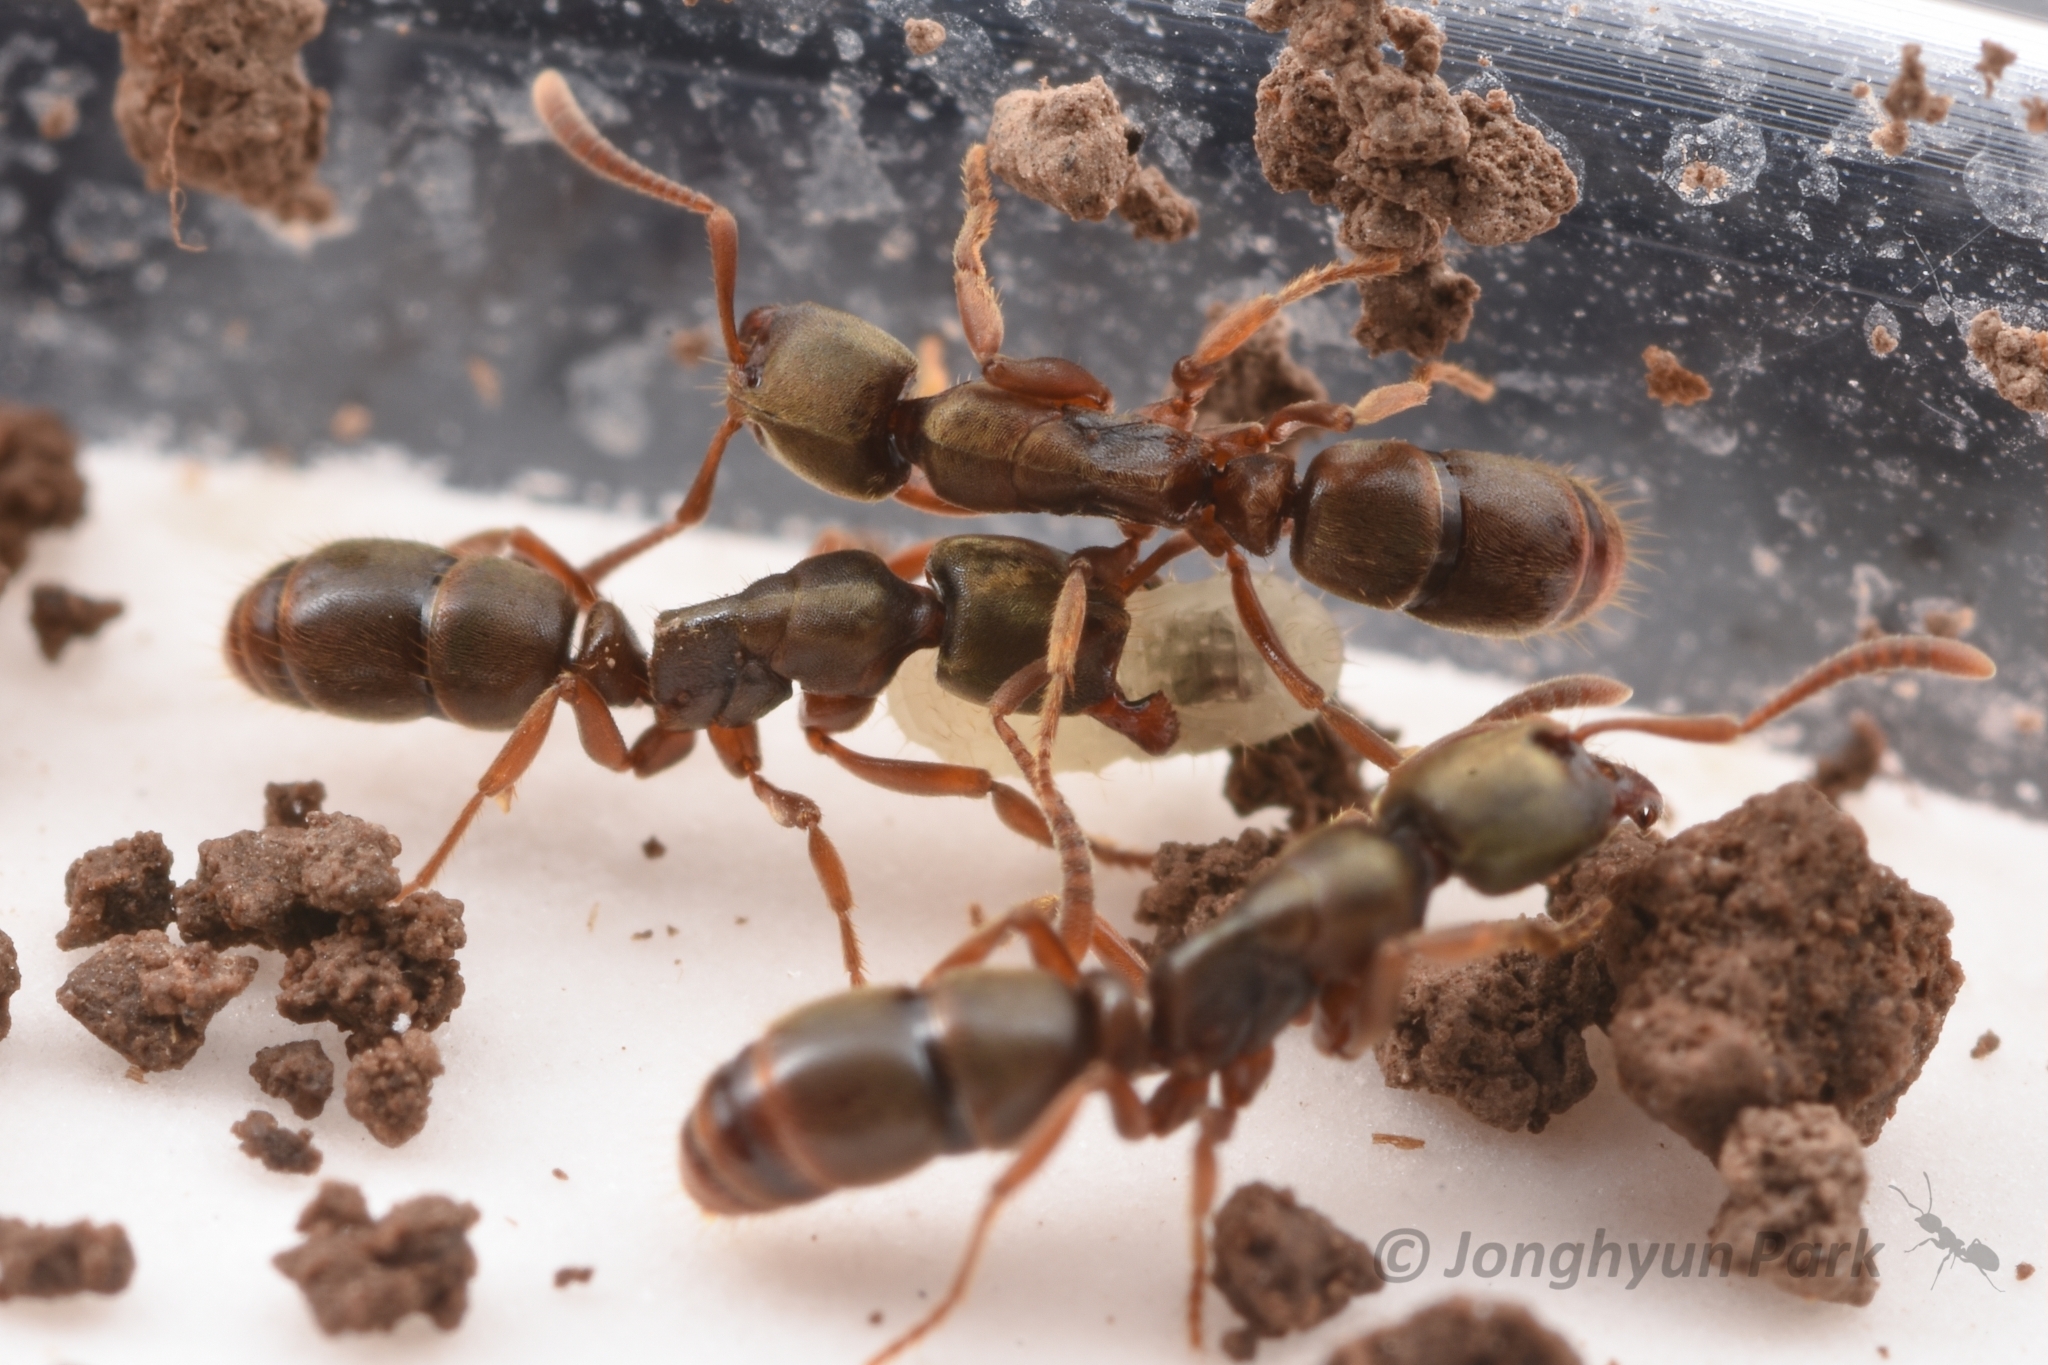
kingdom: Animalia
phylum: Arthropoda
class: Insecta
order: Hymenoptera
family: Formicidae
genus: Pachycondyla
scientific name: Pachycondyla
